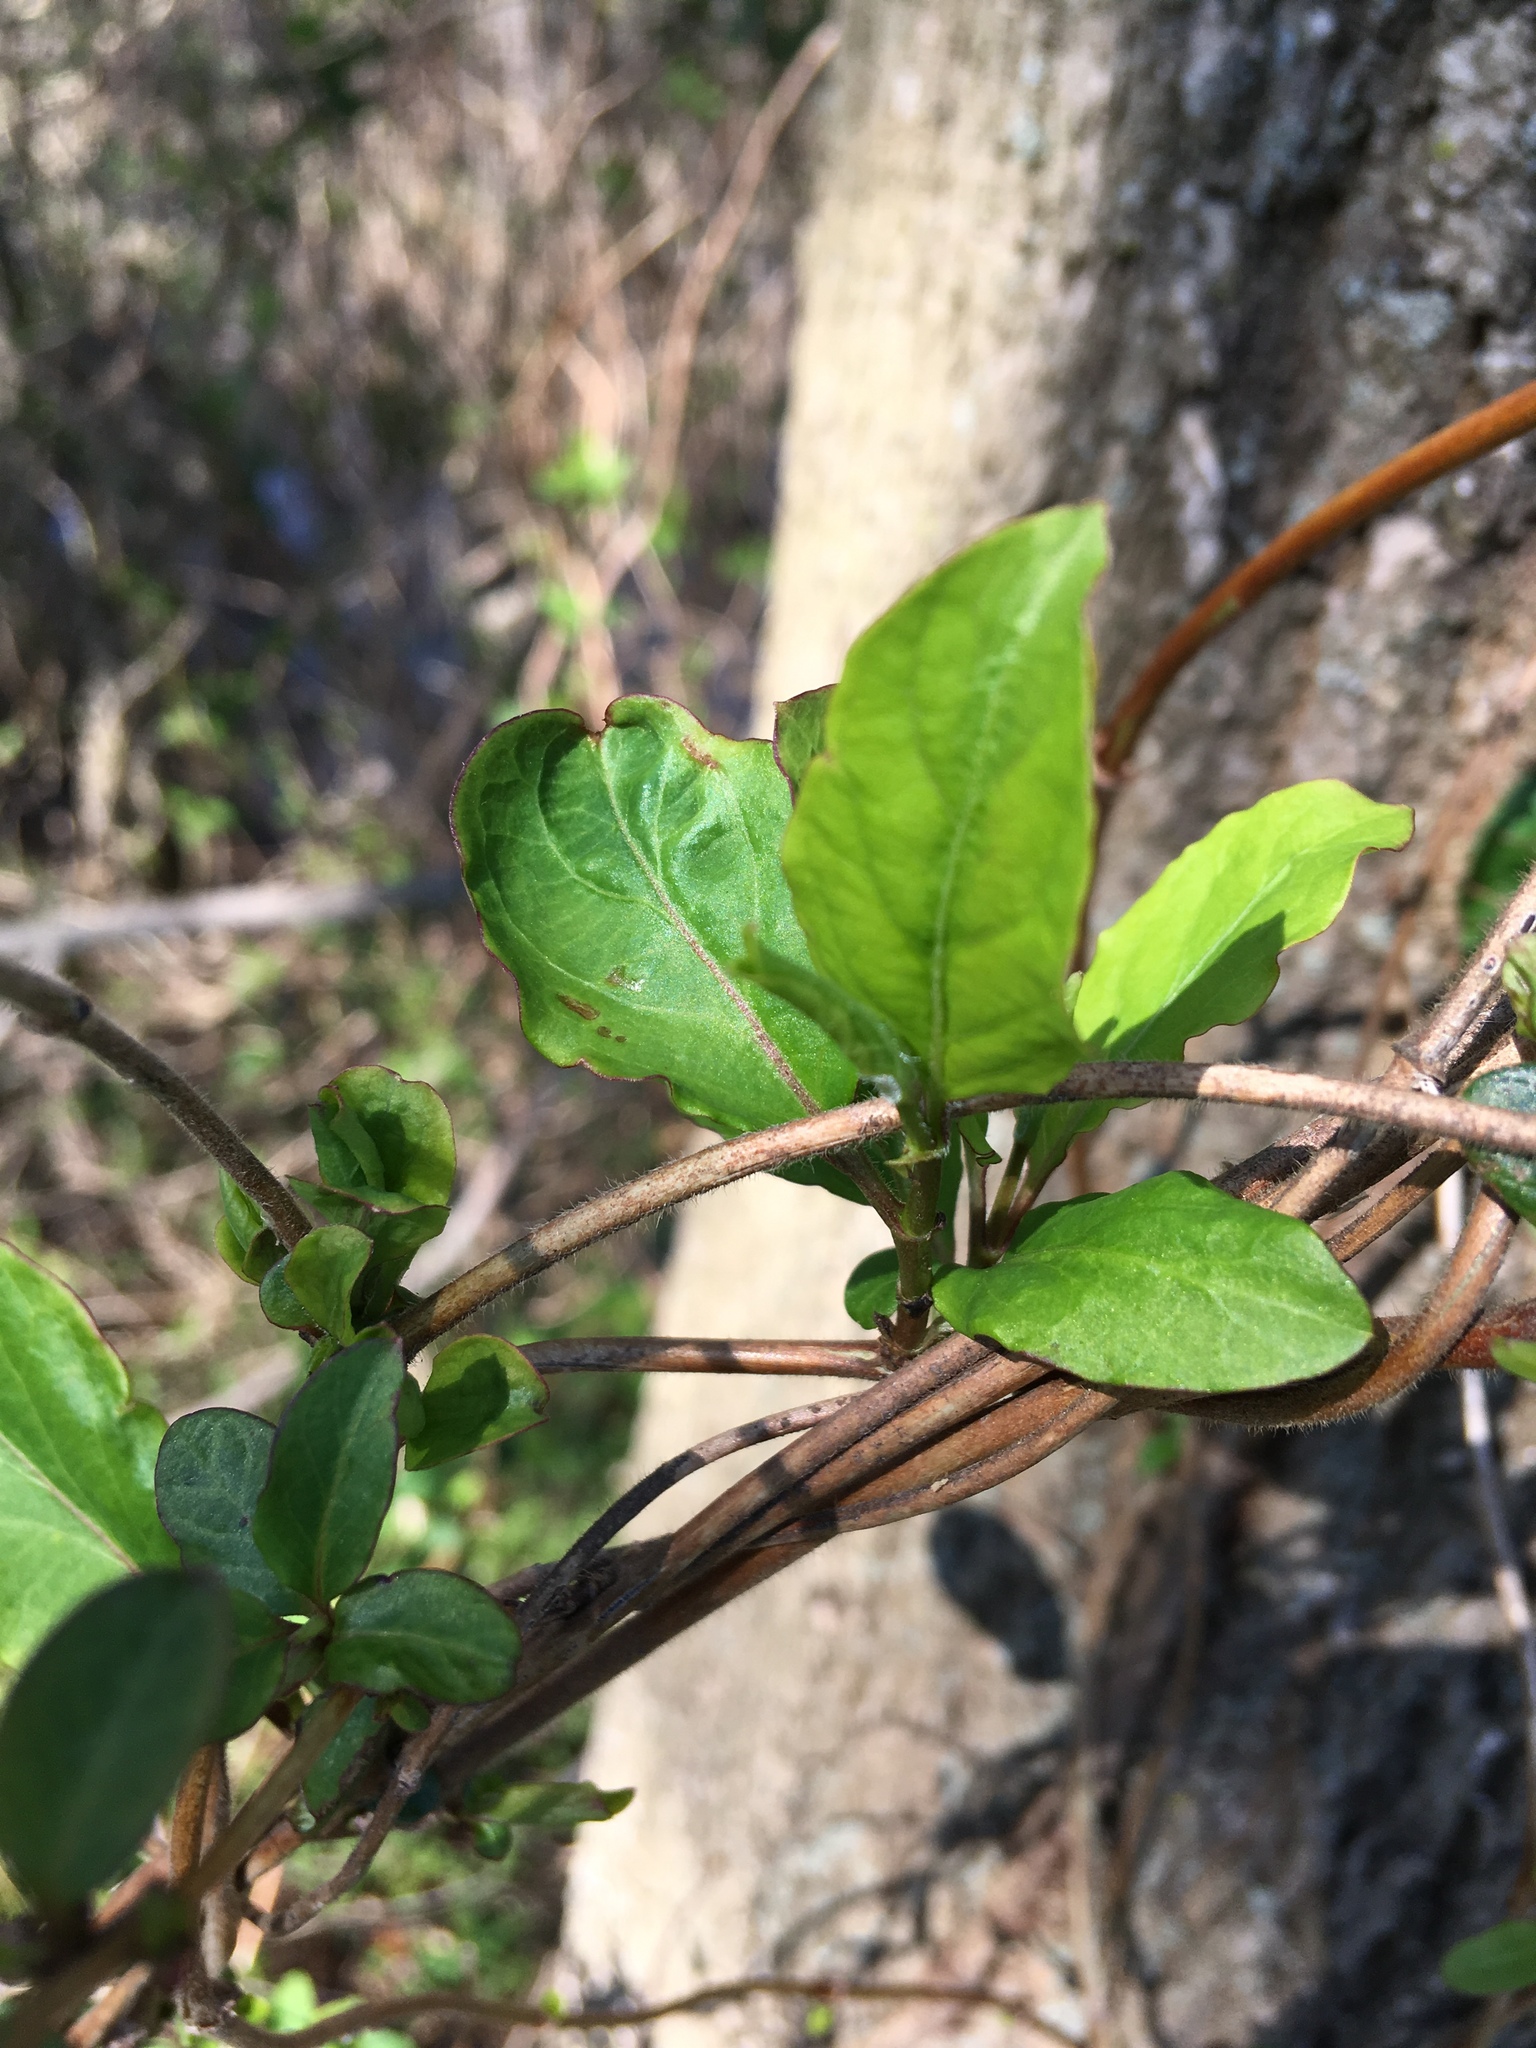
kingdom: Plantae
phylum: Tracheophyta
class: Magnoliopsida
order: Dipsacales
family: Caprifoliaceae
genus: Lonicera
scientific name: Lonicera japonica
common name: Japanese honeysuckle
